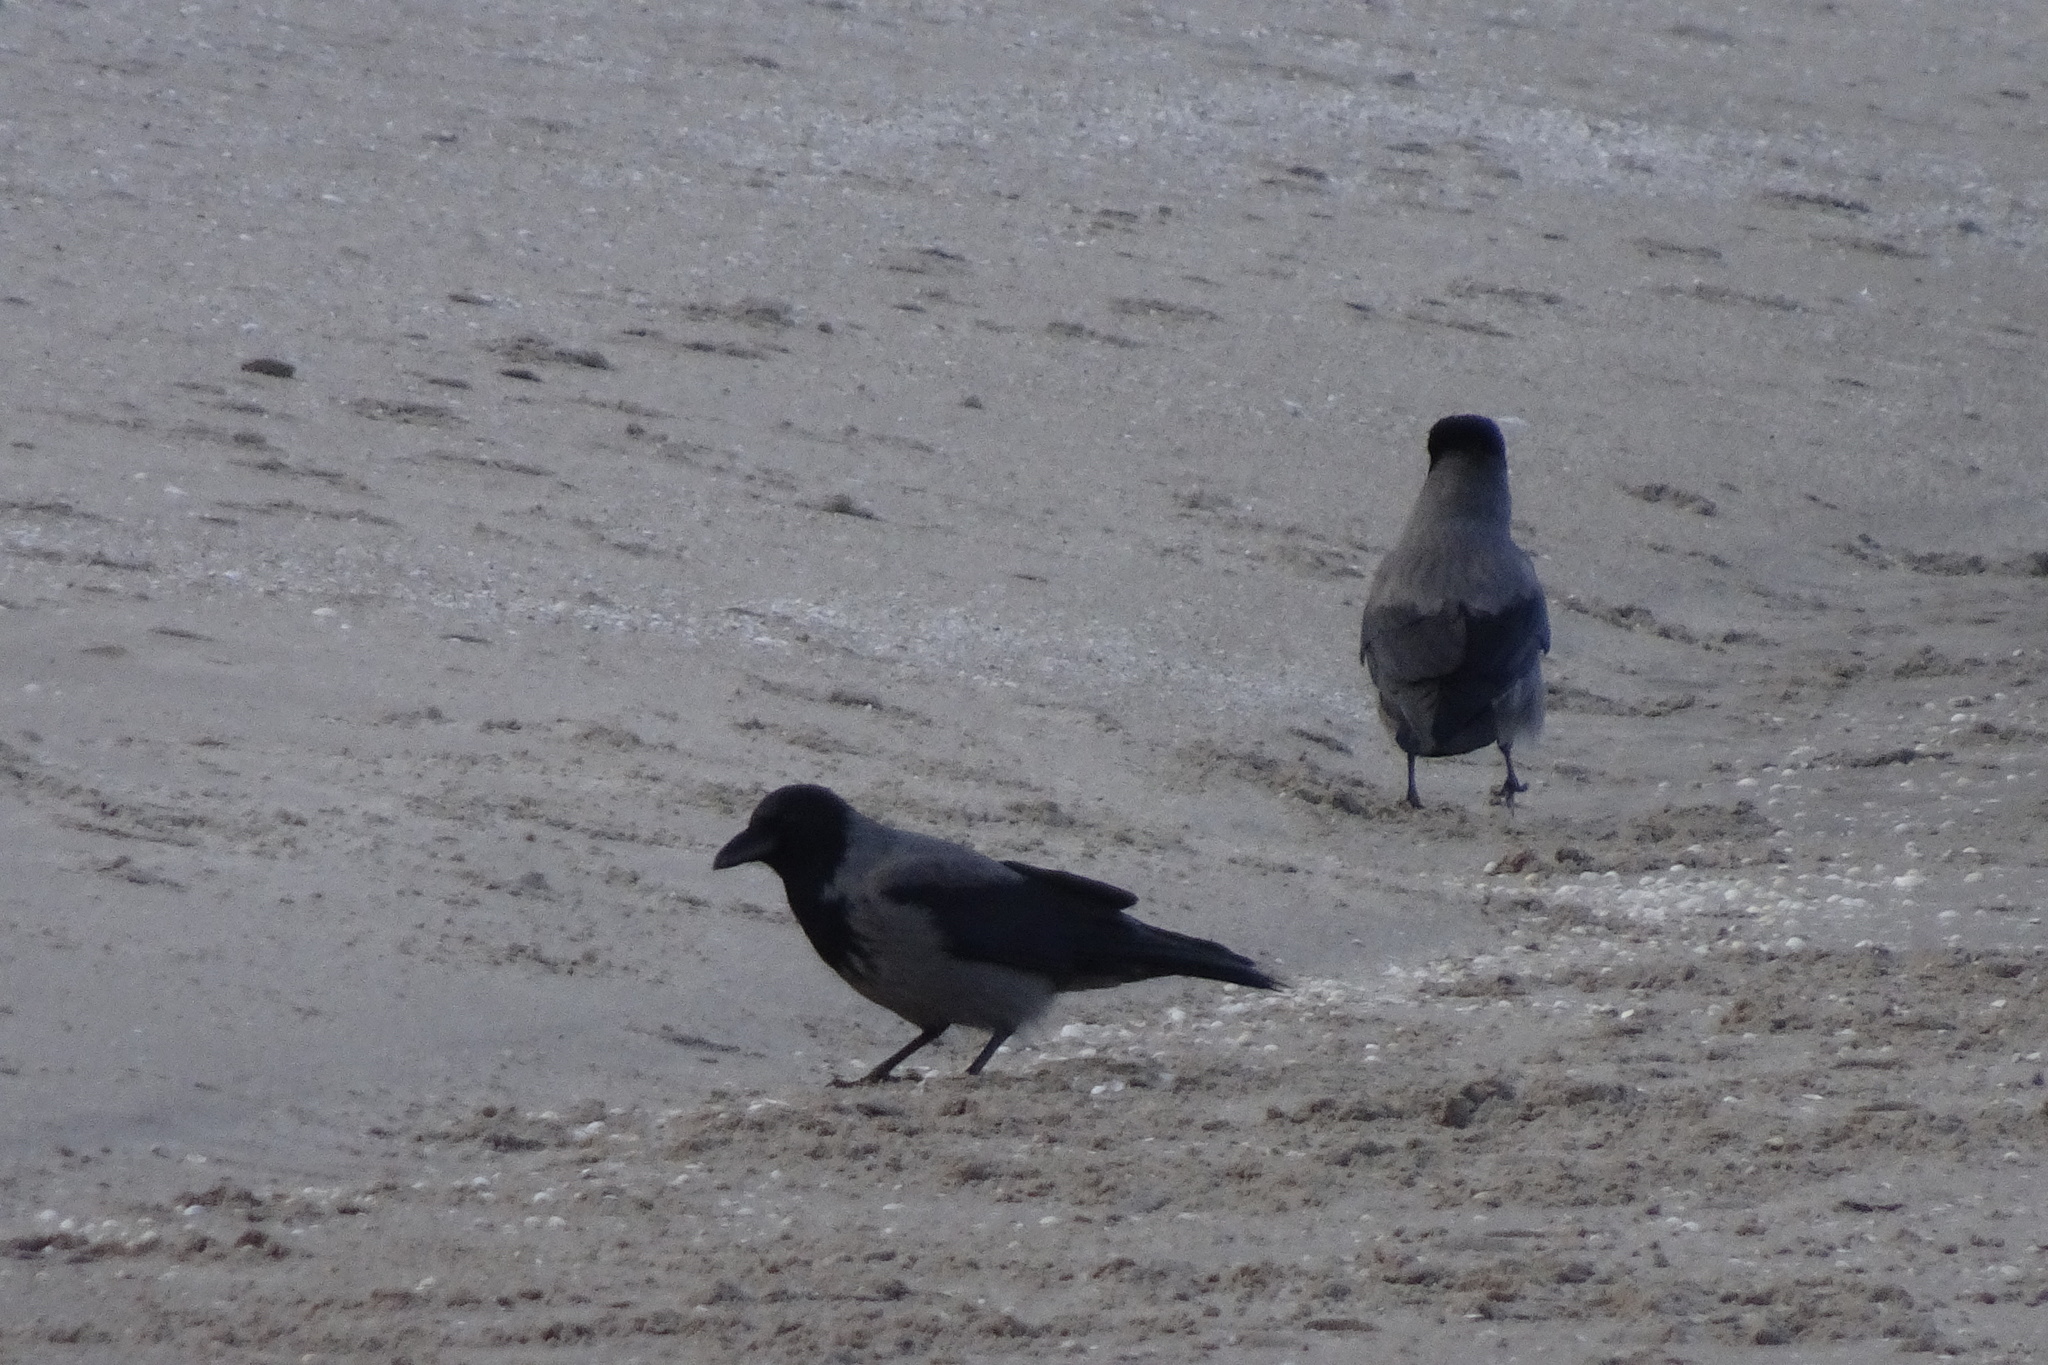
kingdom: Animalia
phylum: Chordata
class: Aves
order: Passeriformes
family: Corvidae
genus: Corvus
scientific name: Corvus cornix
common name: Hooded crow
